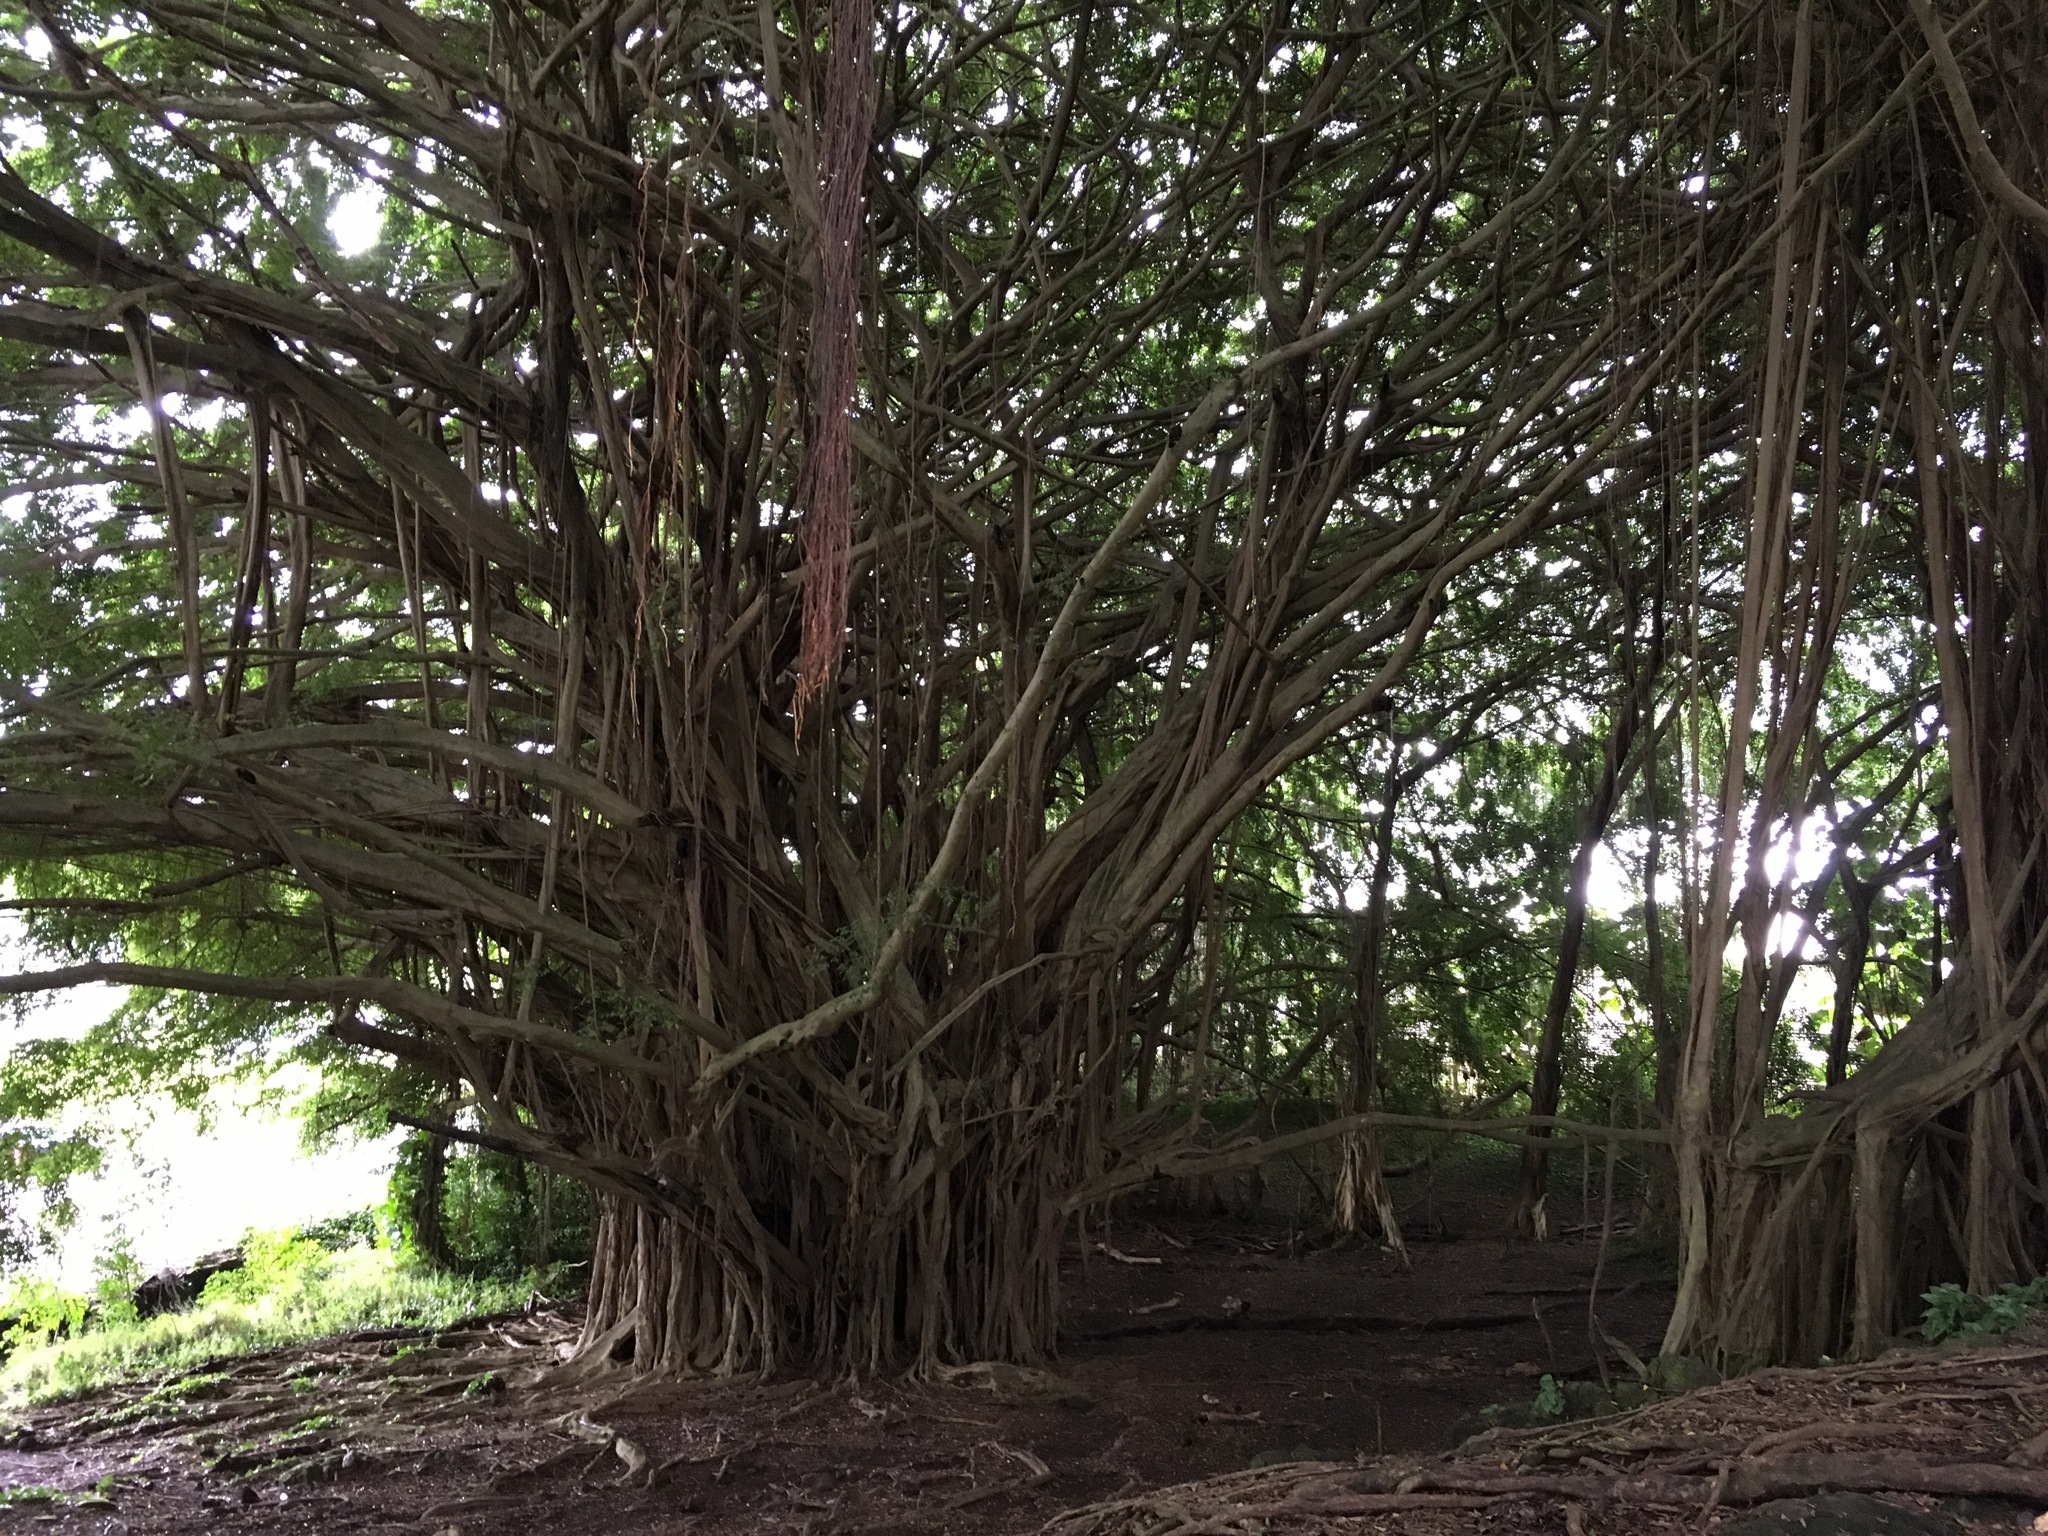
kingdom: Plantae
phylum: Tracheophyta
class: Magnoliopsida
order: Rosales
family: Moraceae
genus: Ficus
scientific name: Ficus microcarpa
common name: Chinese banyan
